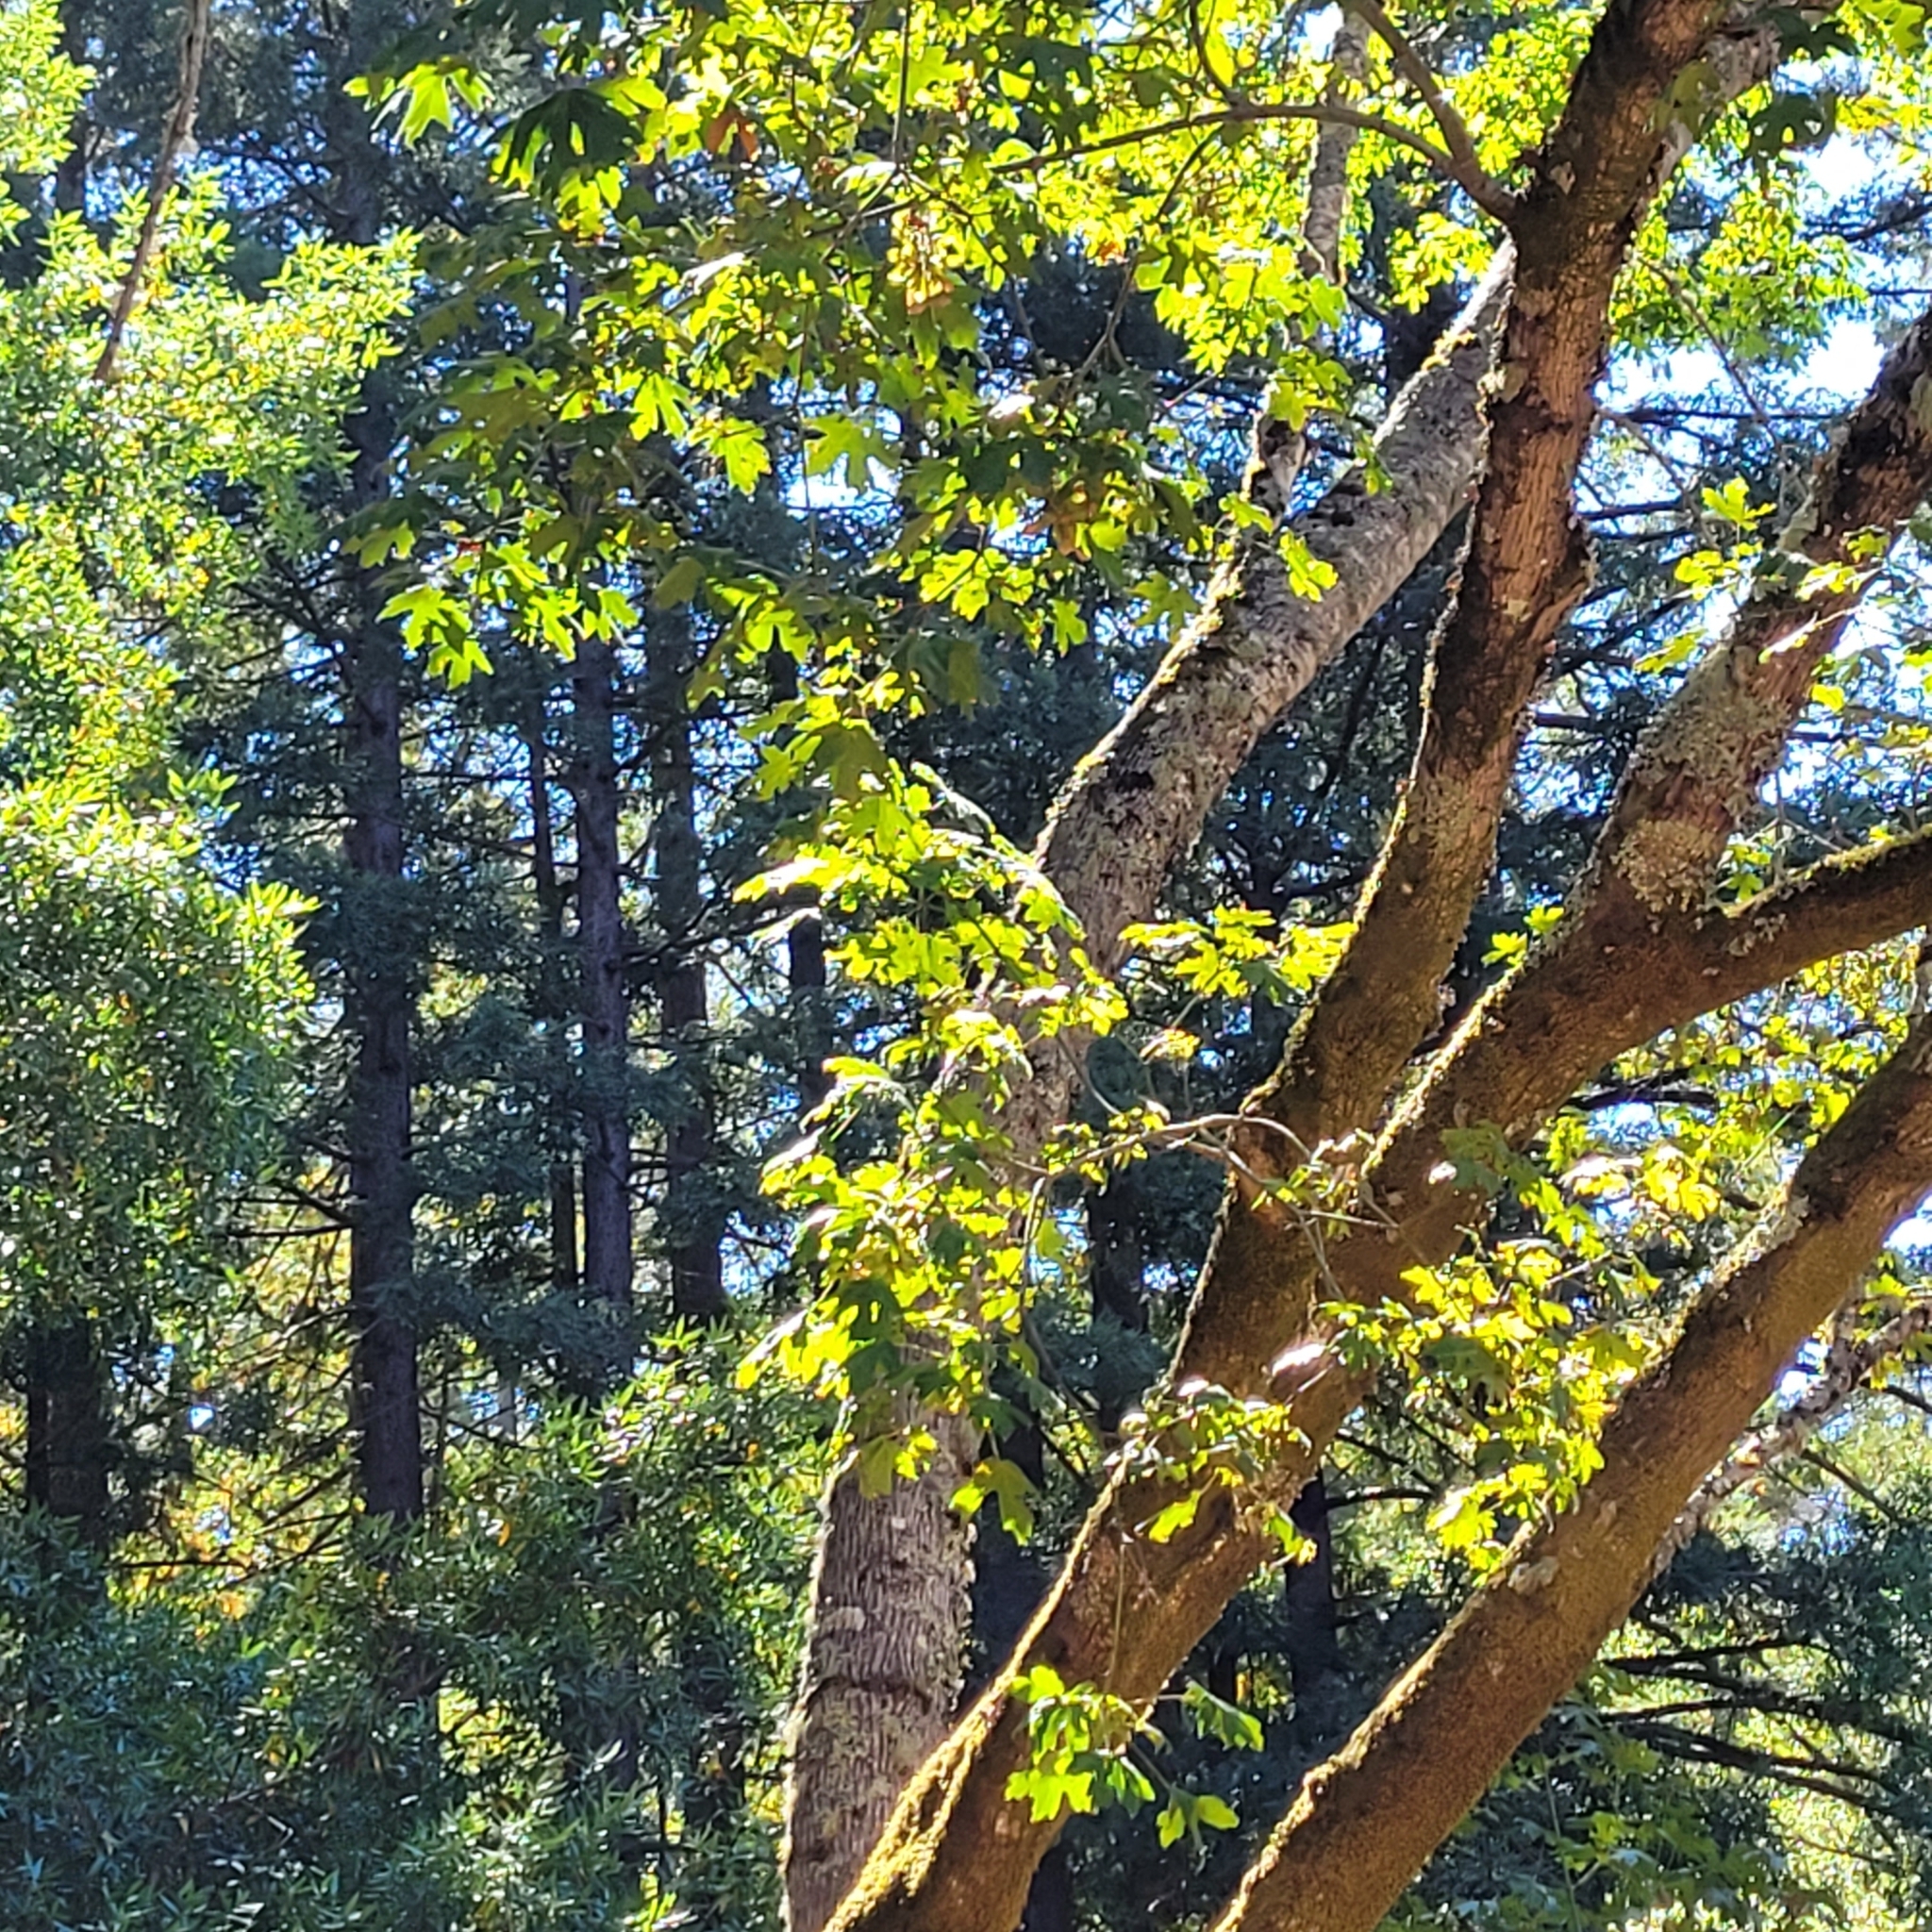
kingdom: Plantae
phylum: Tracheophyta
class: Magnoliopsida
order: Sapindales
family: Sapindaceae
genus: Acer
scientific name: Acer macrophyllum
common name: Oregon maple
